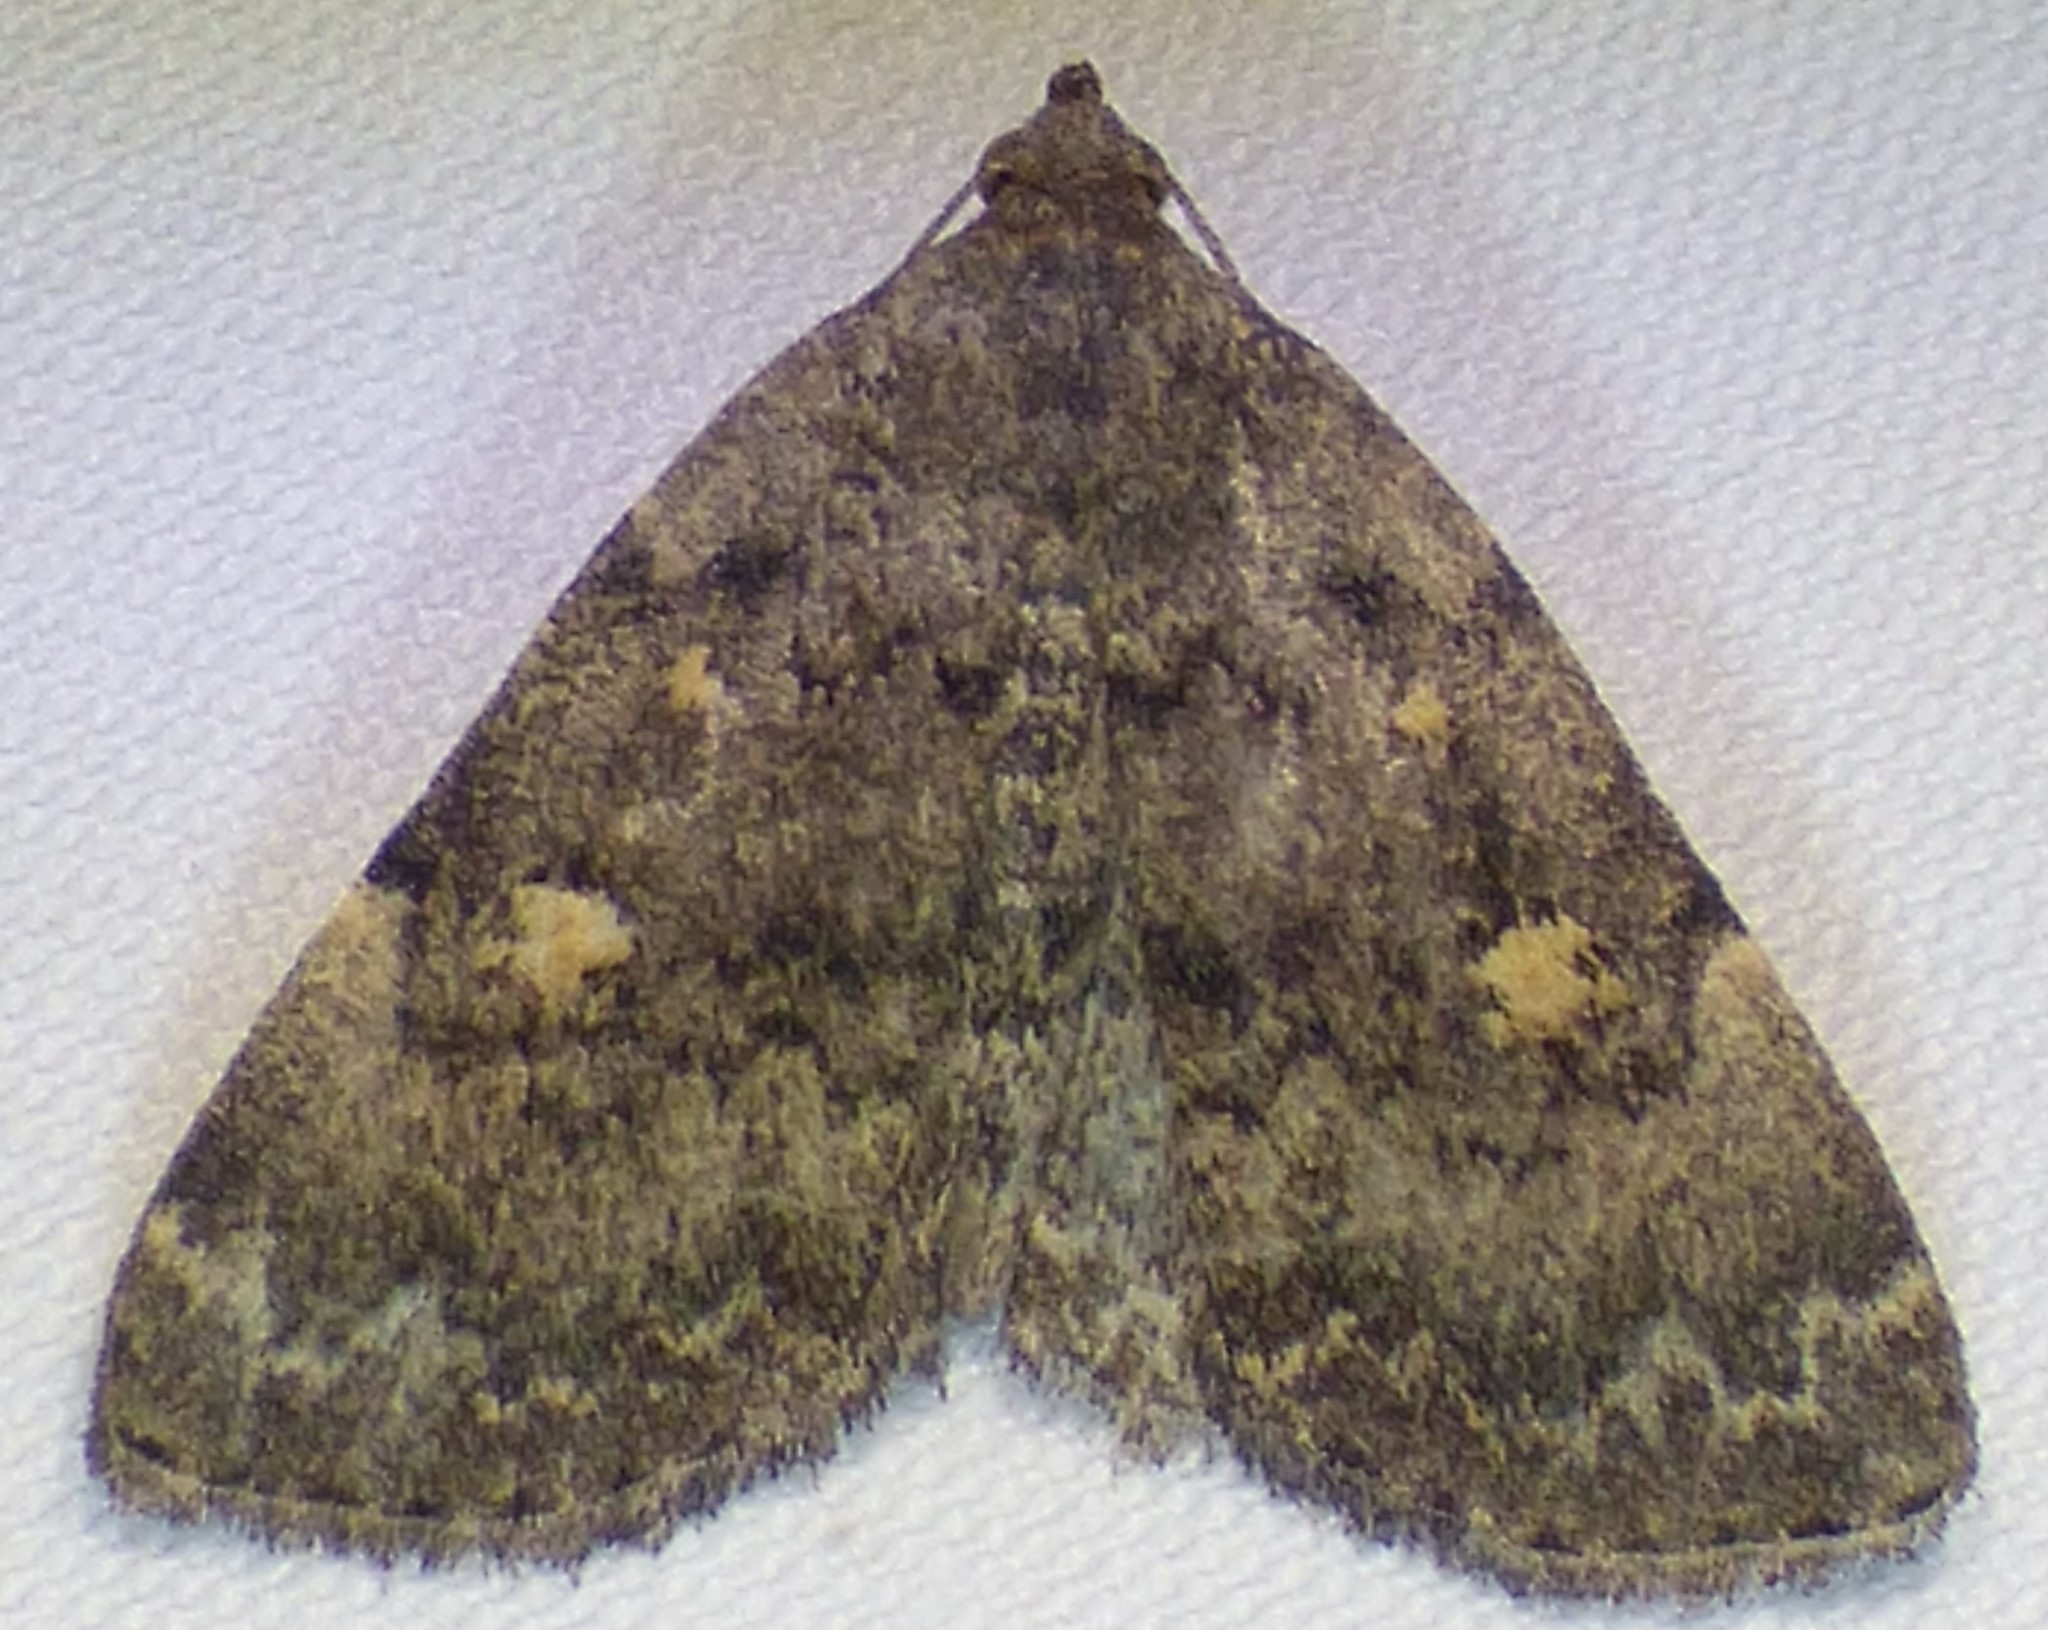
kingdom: Animalia
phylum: Arthropoda
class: Insecta
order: Lepidoptera
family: Erebidae
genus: Idia
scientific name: Idia aemula
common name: Common idia moth
